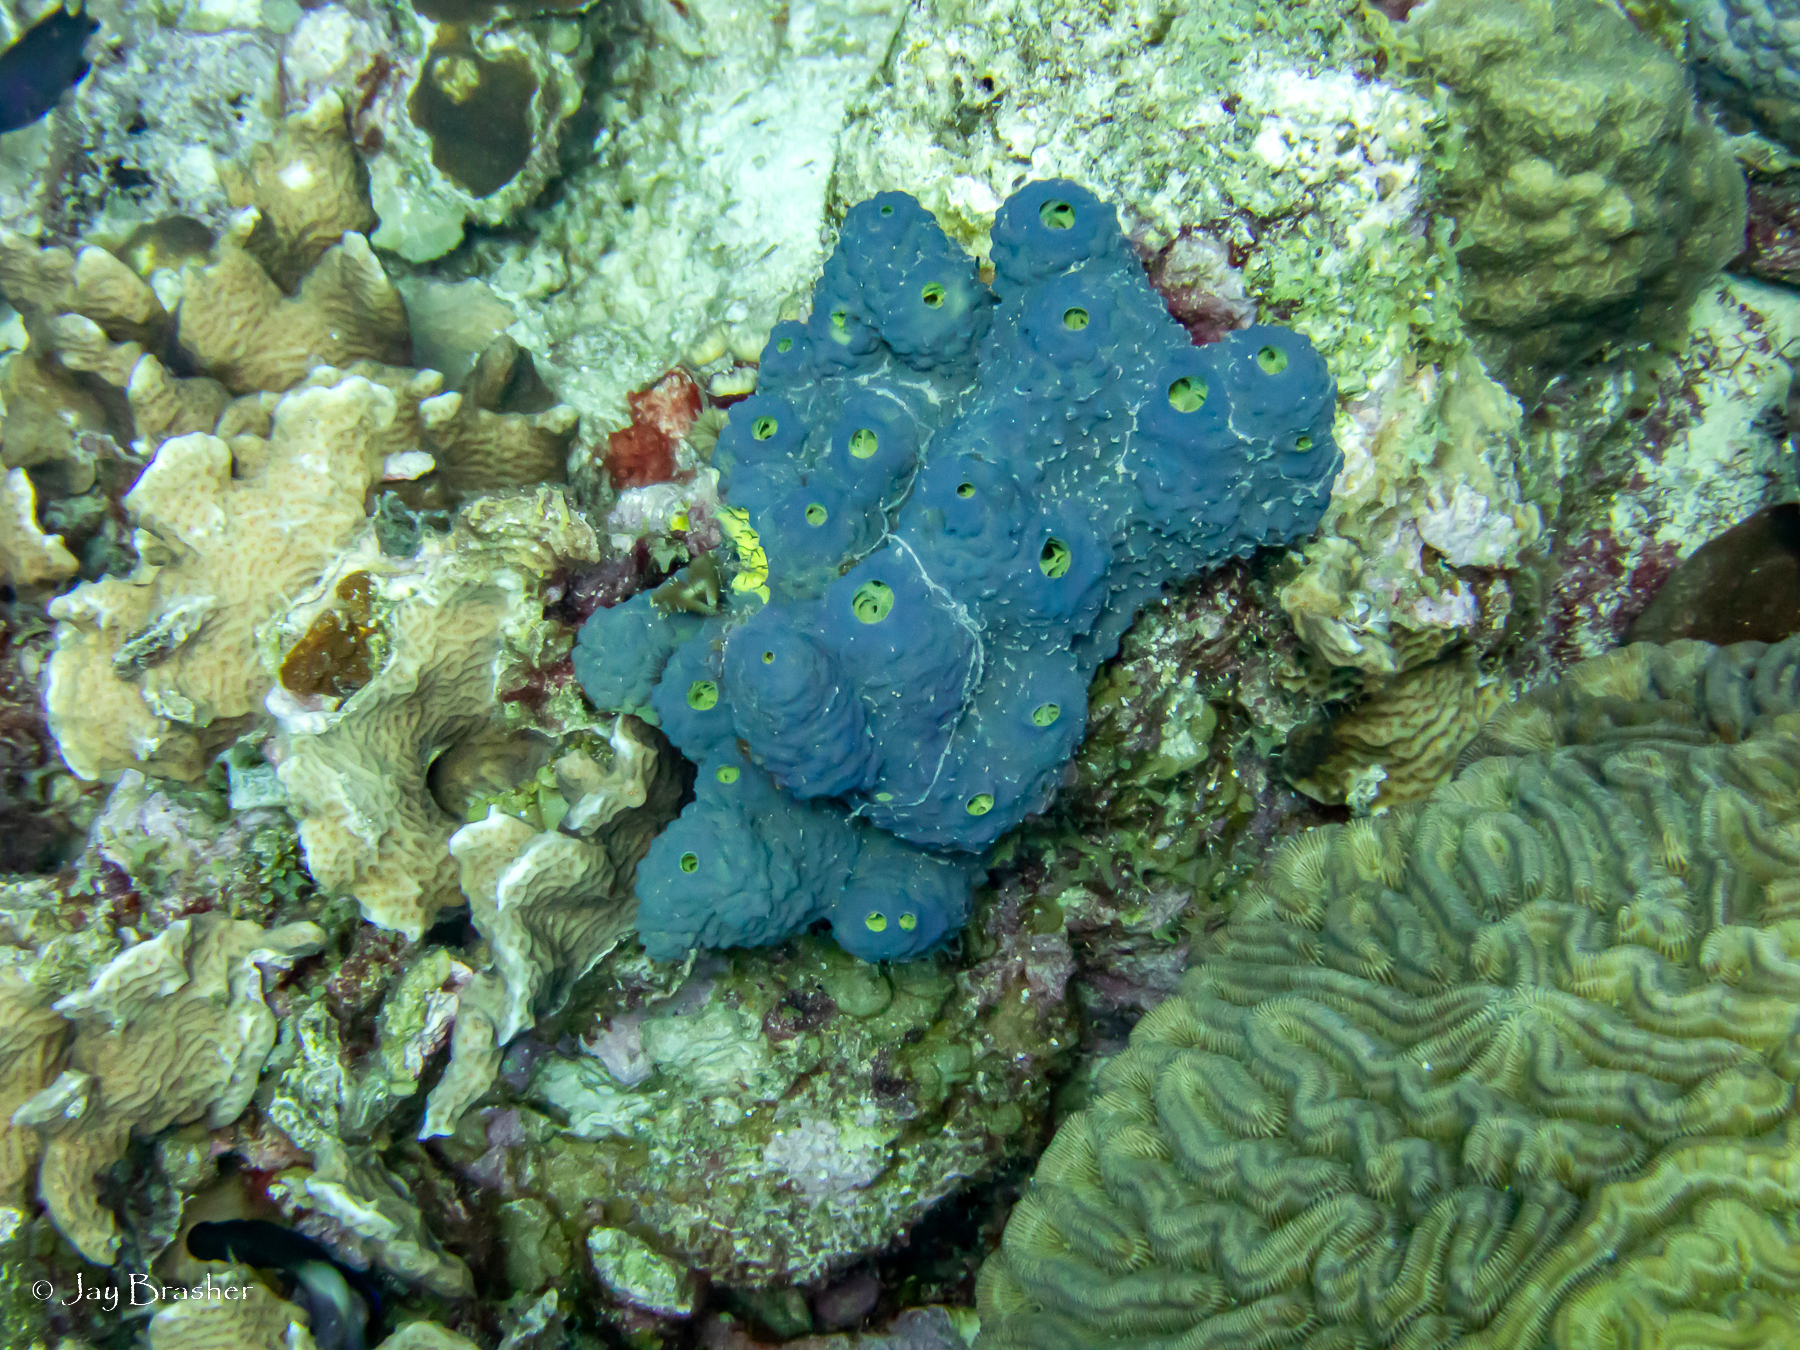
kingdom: Animalia
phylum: Porifera
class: Demospongiae
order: Verongiida
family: Aplysinidae
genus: Aiolochroia
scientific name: Aiolochroia crassa
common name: Branching tube sponge
